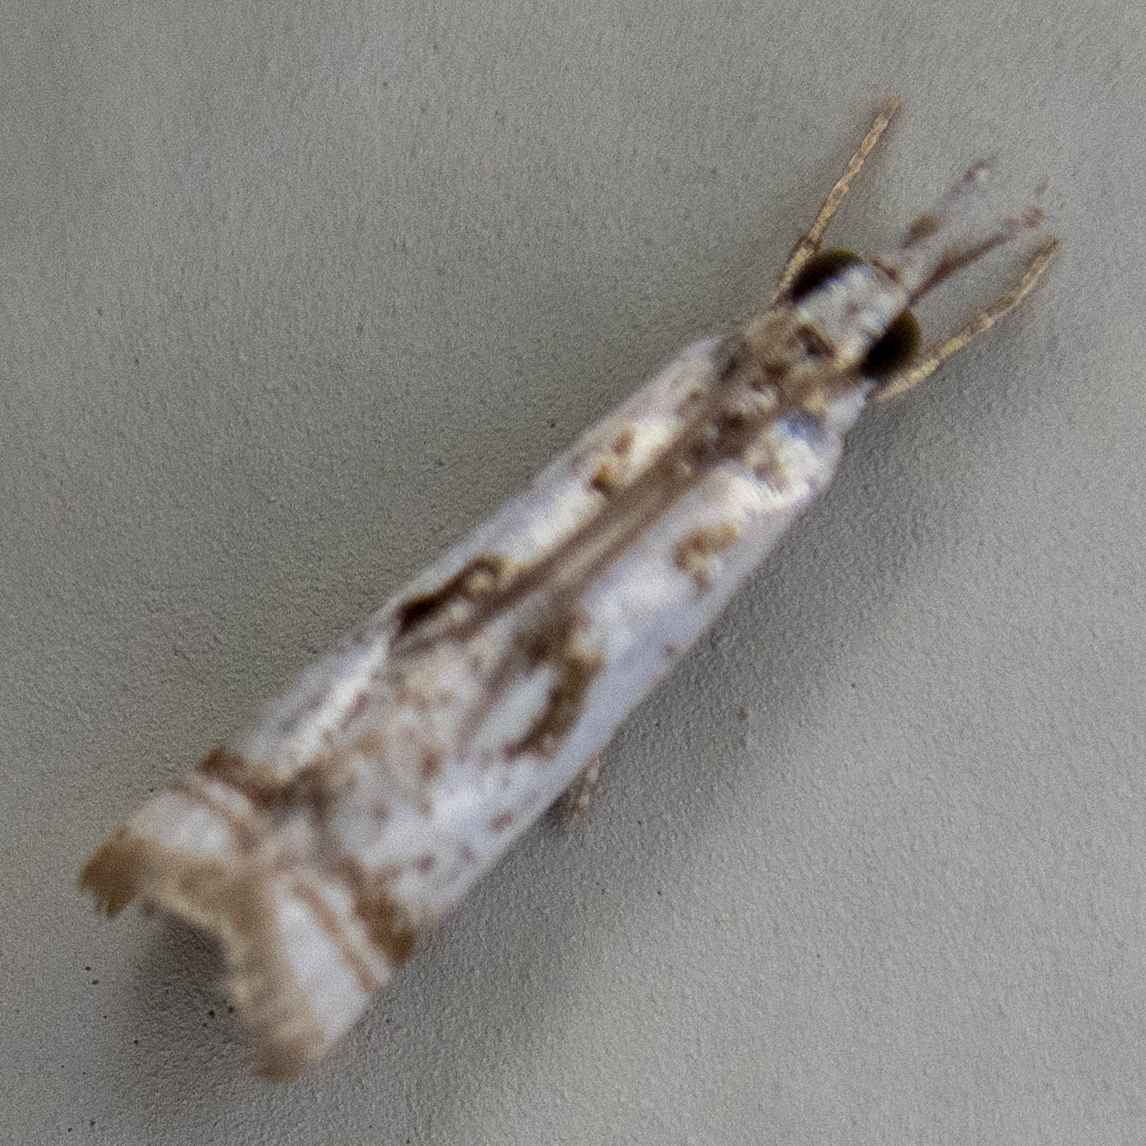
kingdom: Animalia
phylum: Arthropoda
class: Insecta
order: Lepidoptera
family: Crambidae
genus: Microcrambus
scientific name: Microcrambus elegans
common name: Elegant grass-veneer
